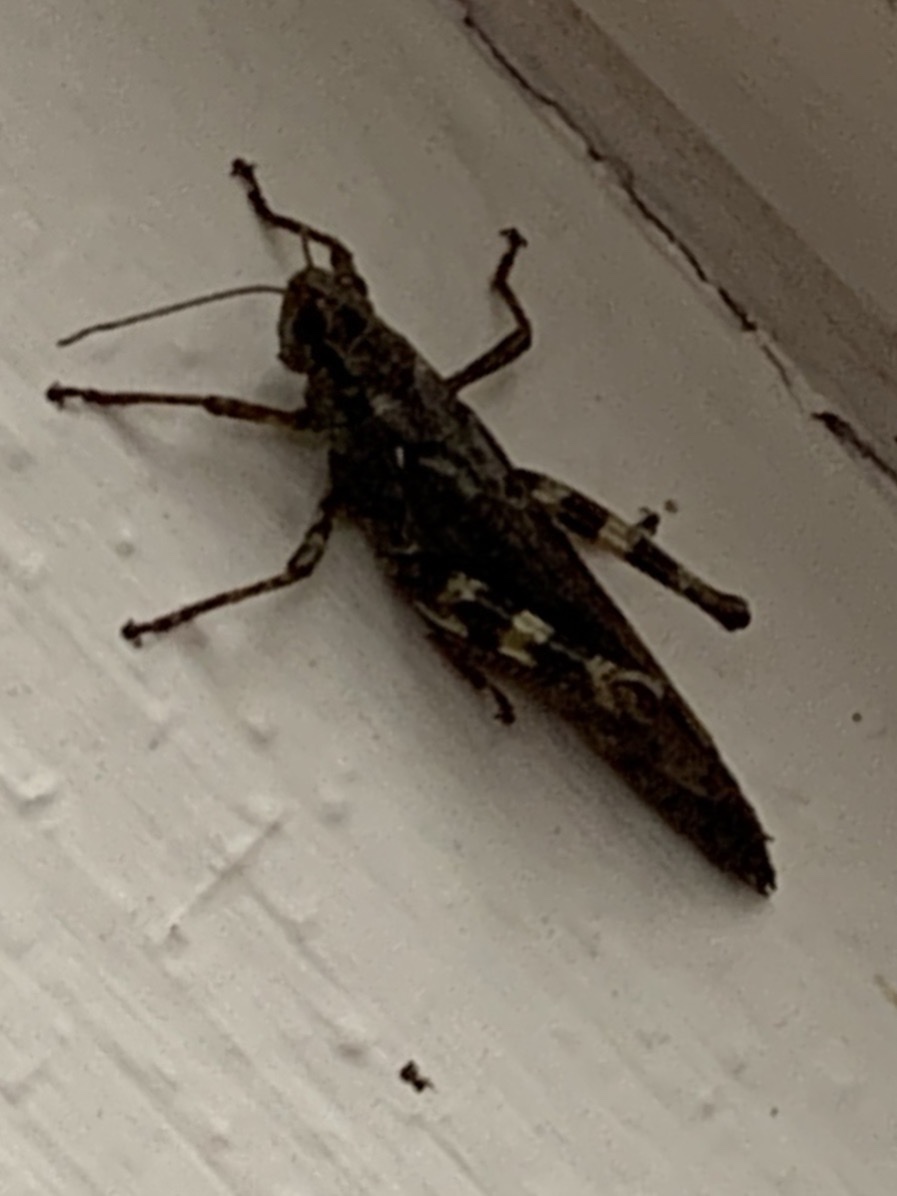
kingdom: Animalia
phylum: Arthropoda
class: Insecta
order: Orthoptera
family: Acrididae
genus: Melanoplus
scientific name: Melanoplus punctulatus
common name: Pine-tree spur-throat grasshopper
